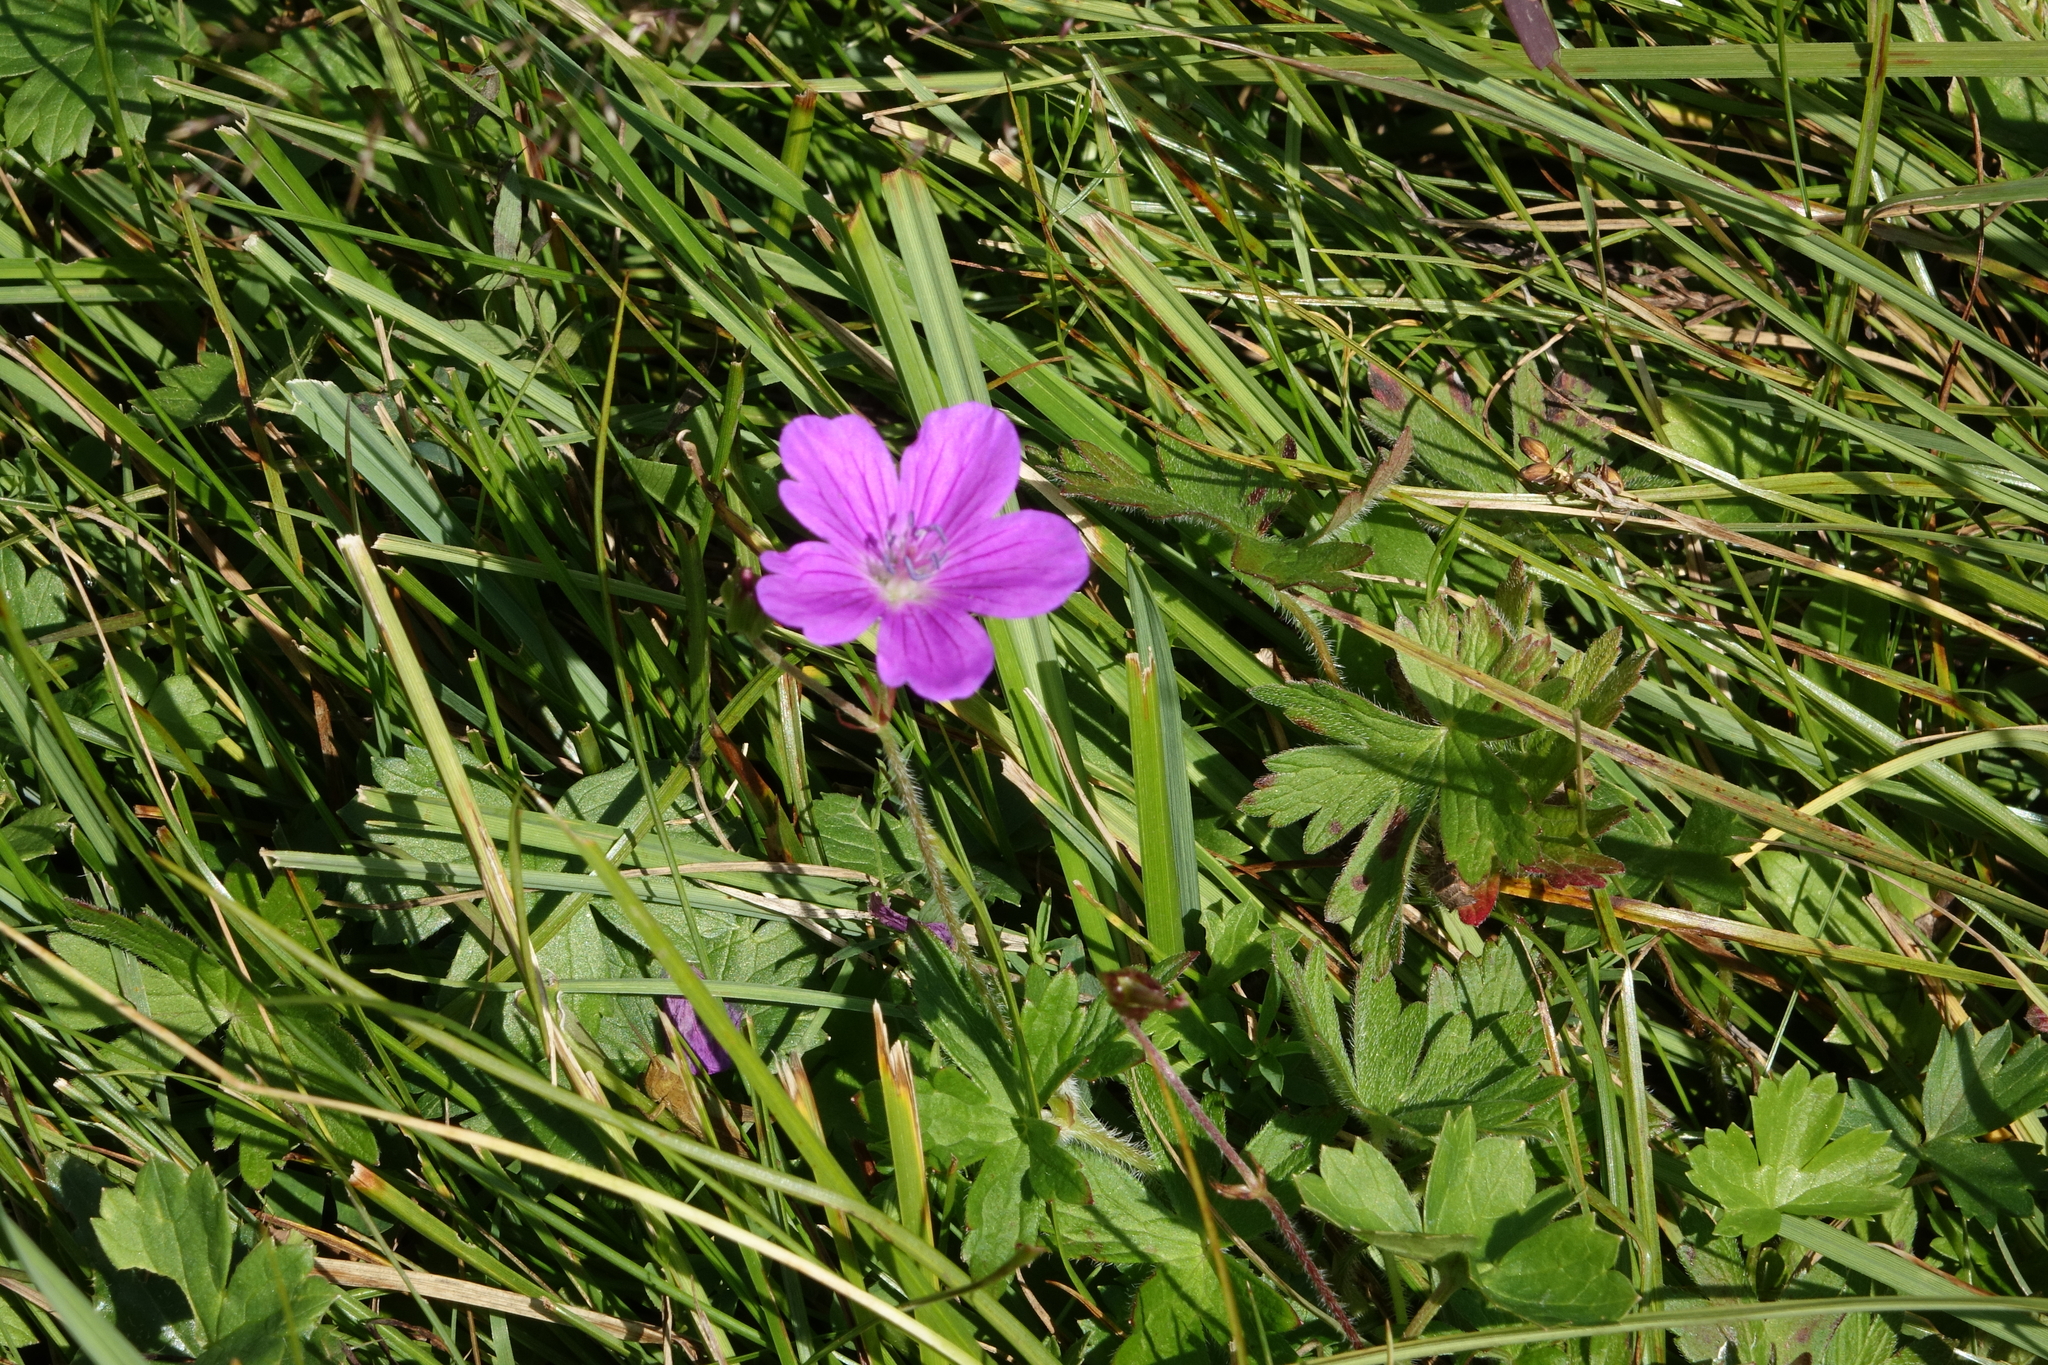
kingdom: Plantae
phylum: Tracheophyta
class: Magnoliopsida
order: Geraniales
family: Geraniaceae
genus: Geranium
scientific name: Geranium palustre
